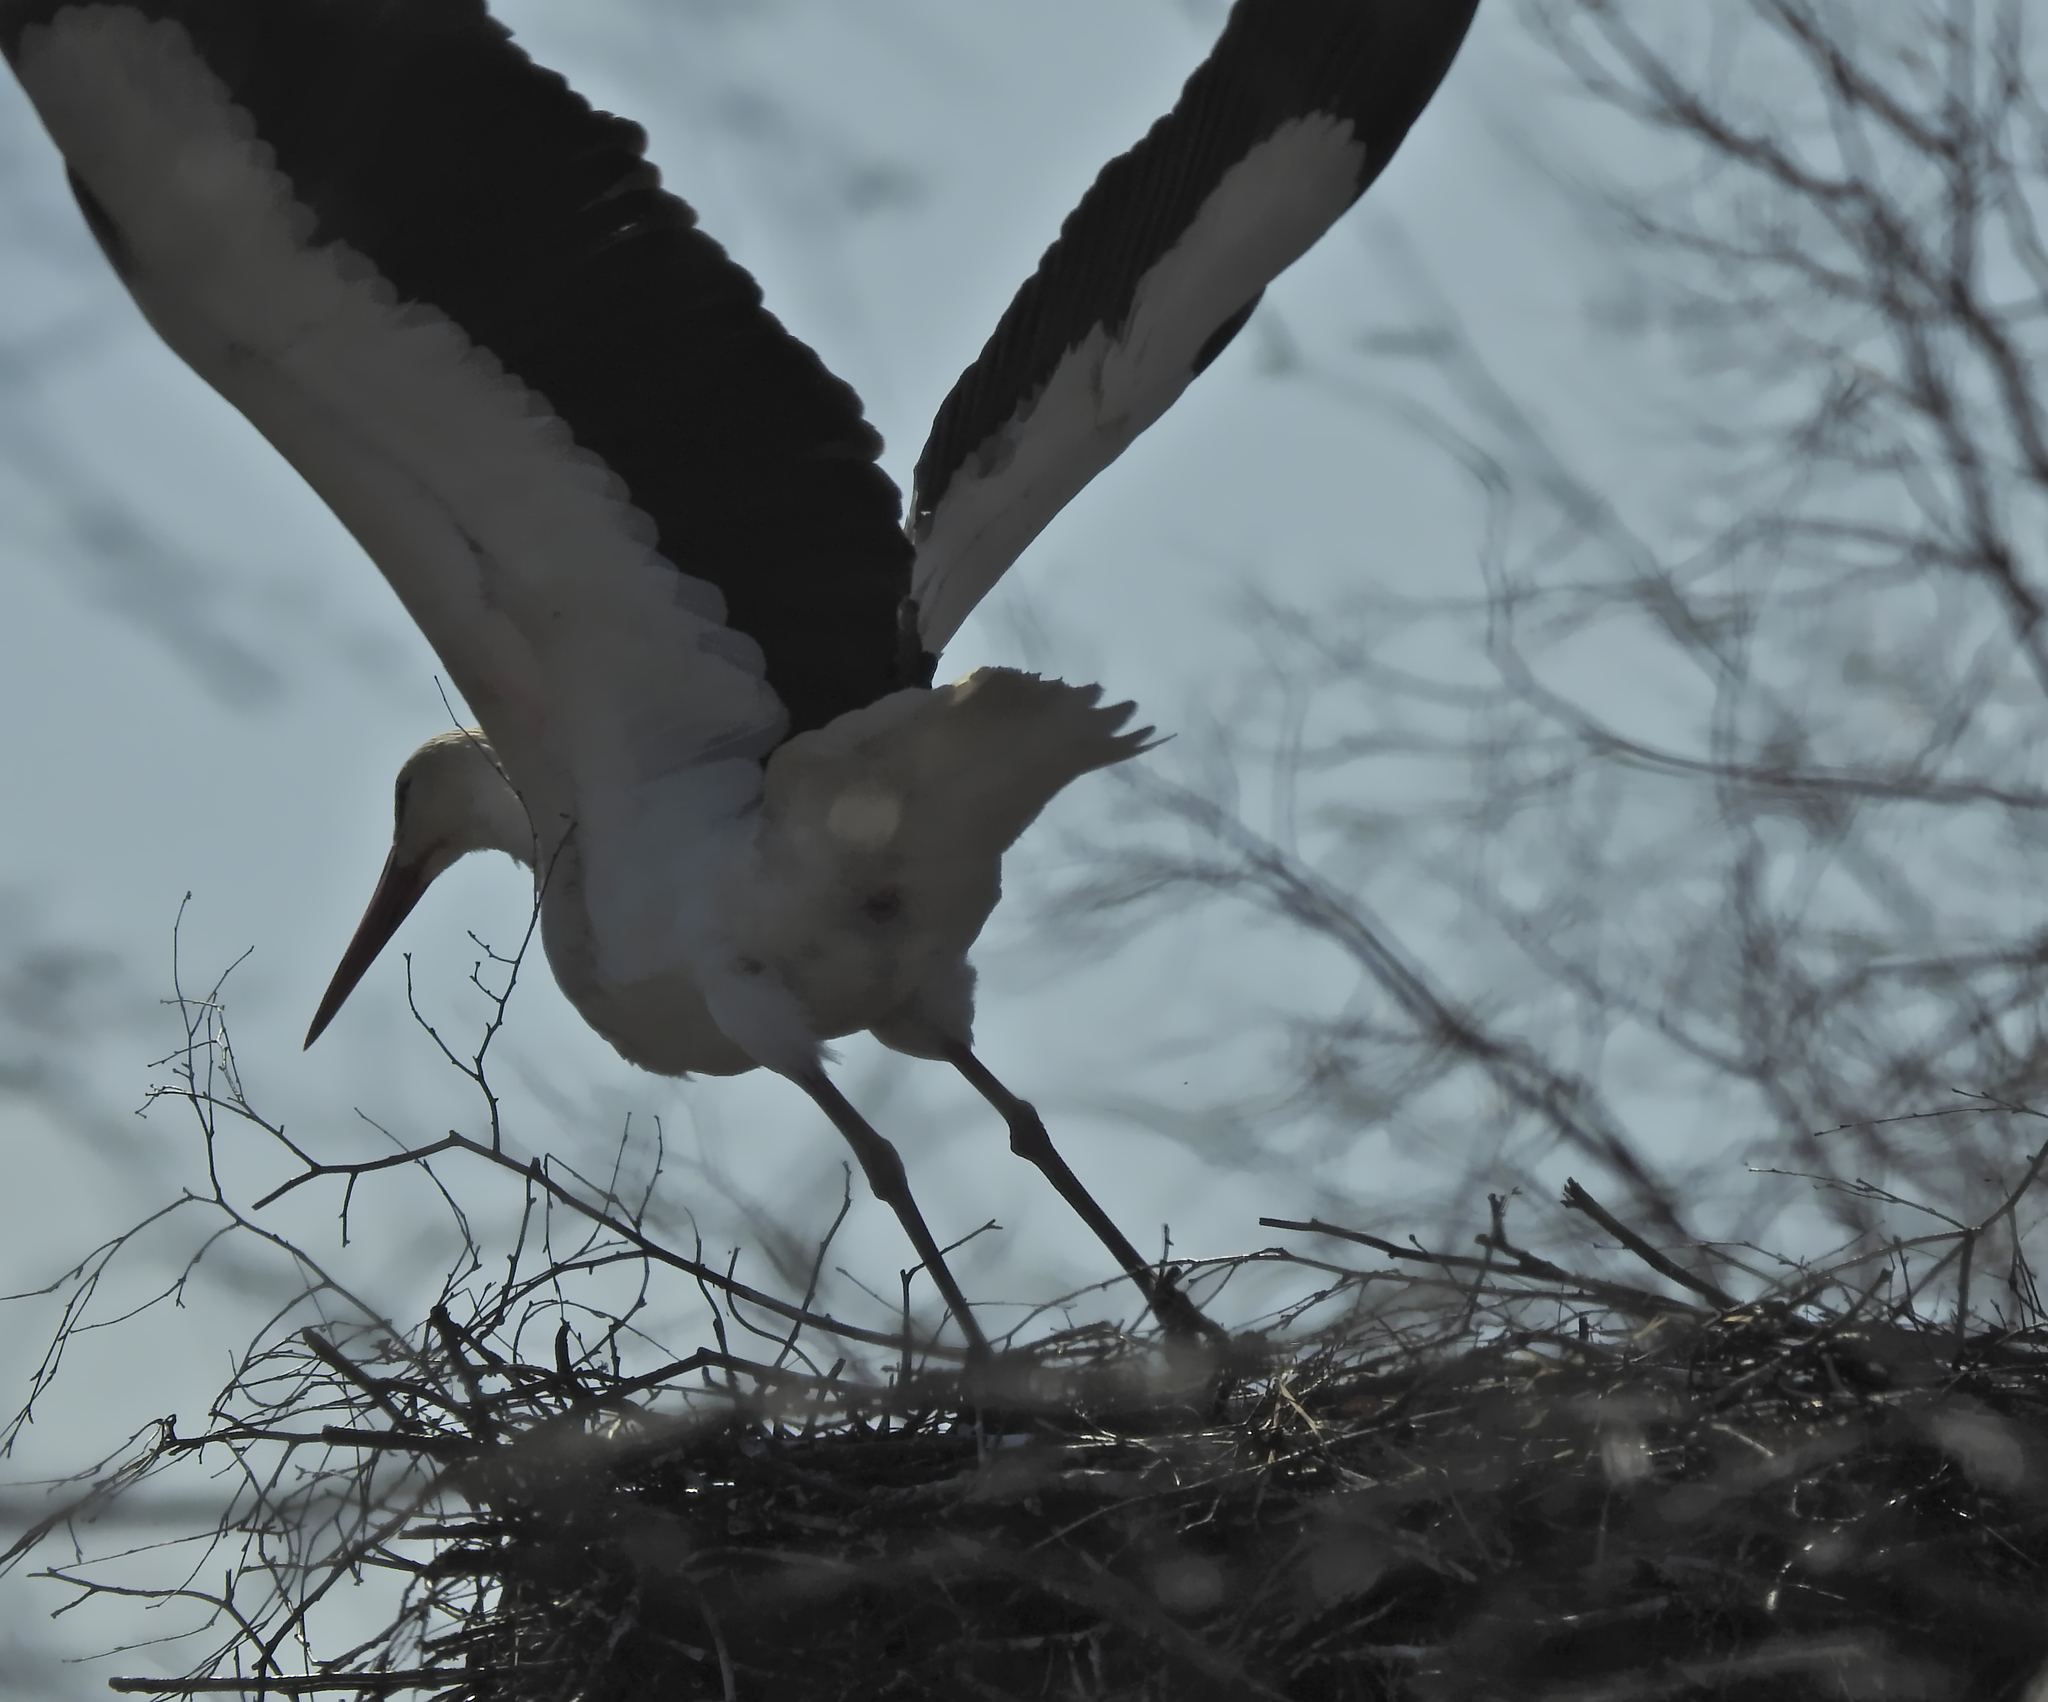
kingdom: Animalia
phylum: Chordata
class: Aves
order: Ciconiiformes
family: Ciconiidae
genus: Ciconia
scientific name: Ciconia ciconia
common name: White stork
